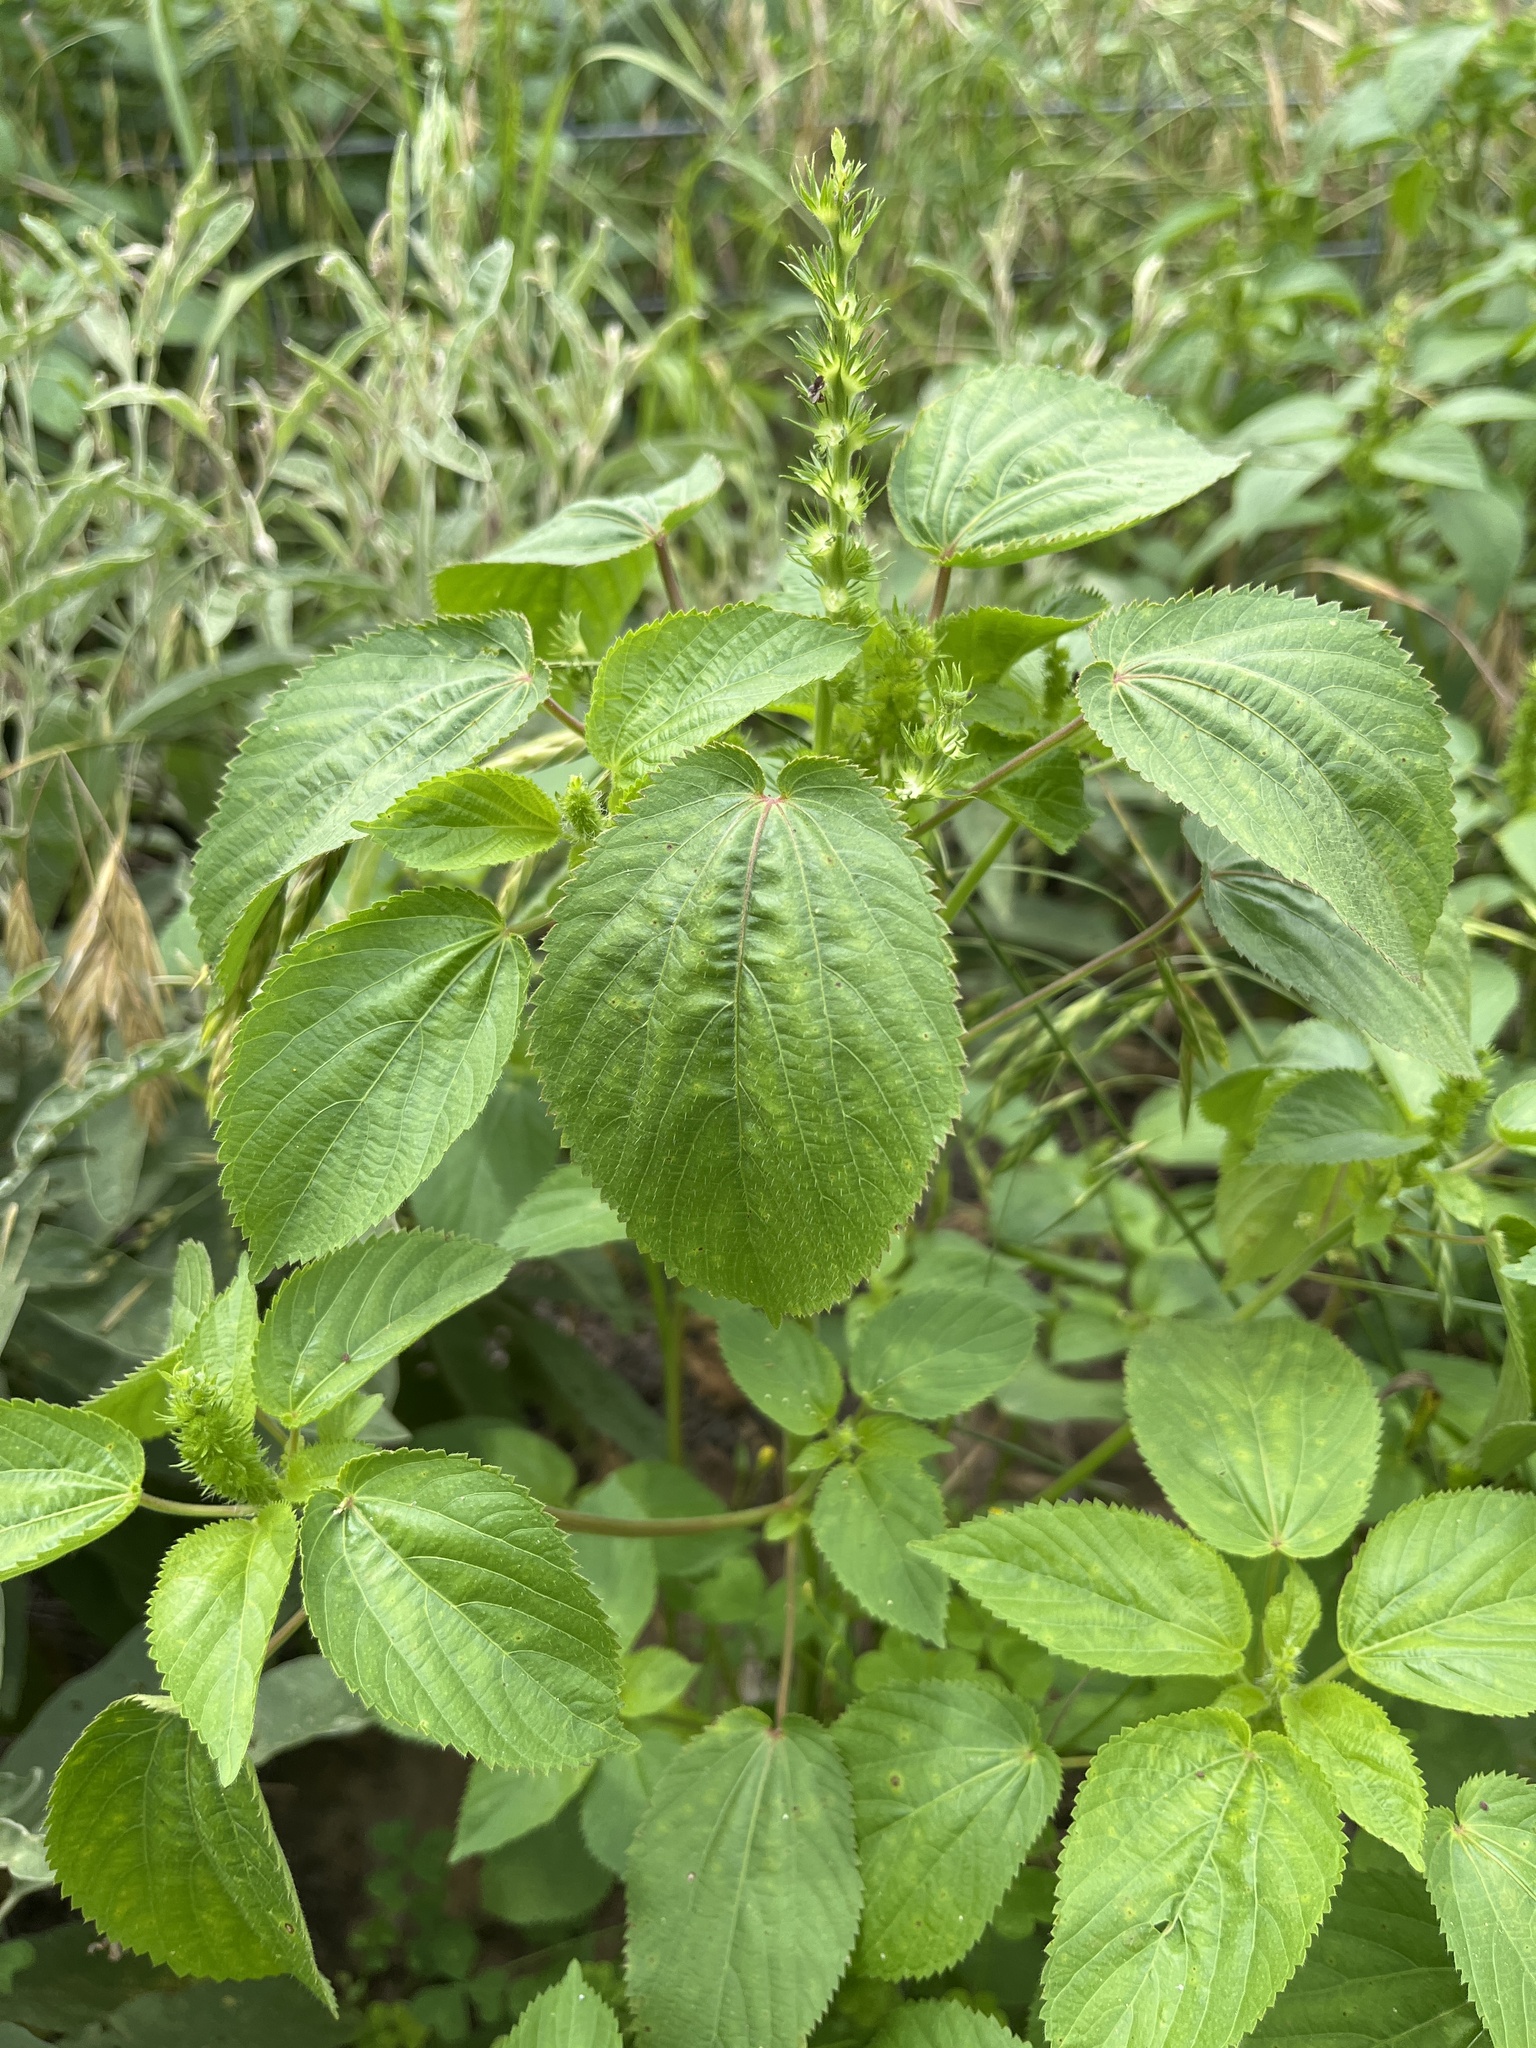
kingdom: Plantae
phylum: Tracheophyta
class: Magnoliopsida
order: Malpighiales
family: Euphorbiaceae
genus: Acalypha
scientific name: Acalypha ostryifolia
